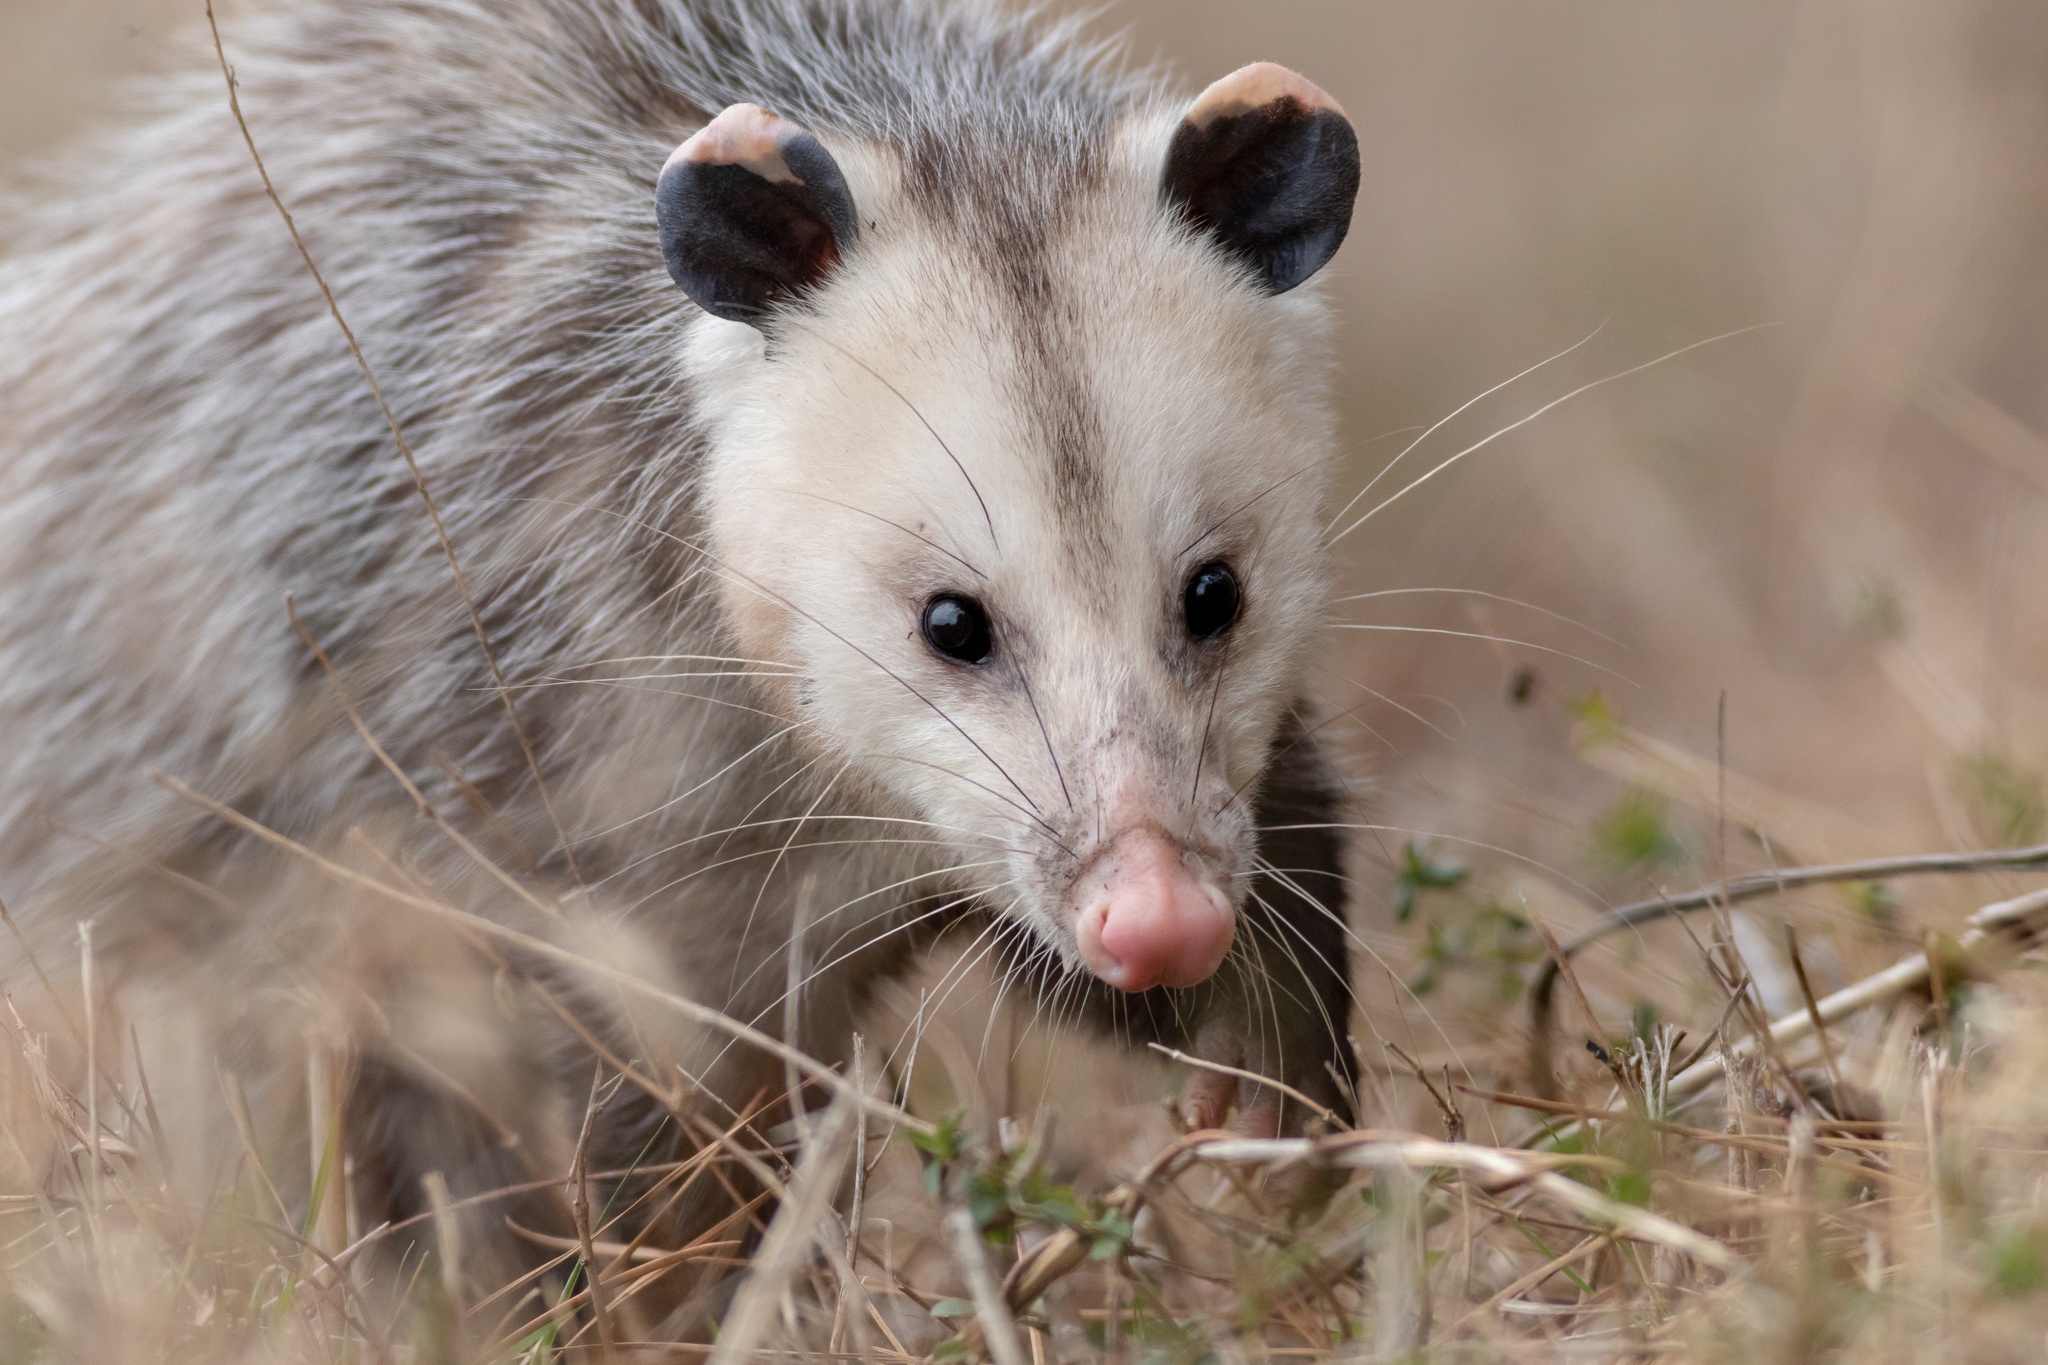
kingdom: Animalia
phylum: Chordata
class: Mammalia
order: Didelphimorphia
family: Didelphidae
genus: Didelphis
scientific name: Didelphis virginiana
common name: Virginia opossum
